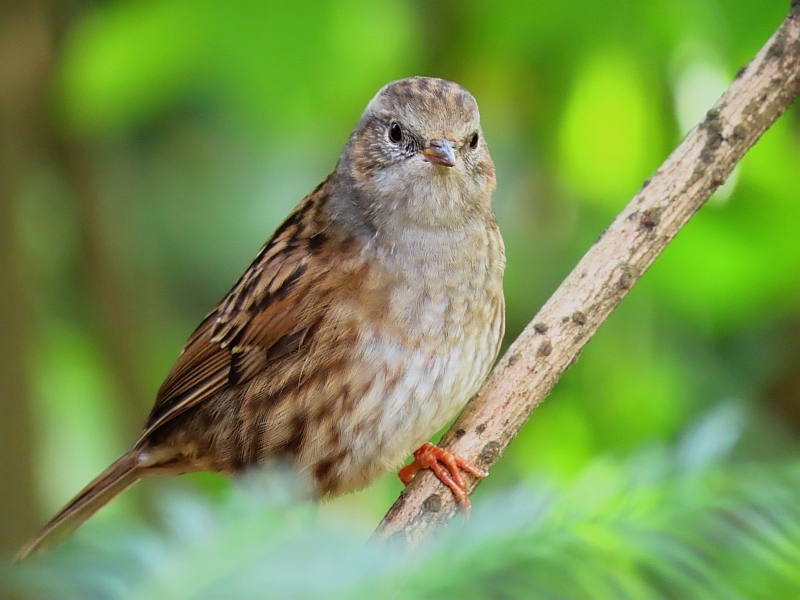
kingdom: Animalia
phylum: Chordata
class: Aves
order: Passeriformes
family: Prunellidae
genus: Prunella
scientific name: Prunella modularis
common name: Dunnock
